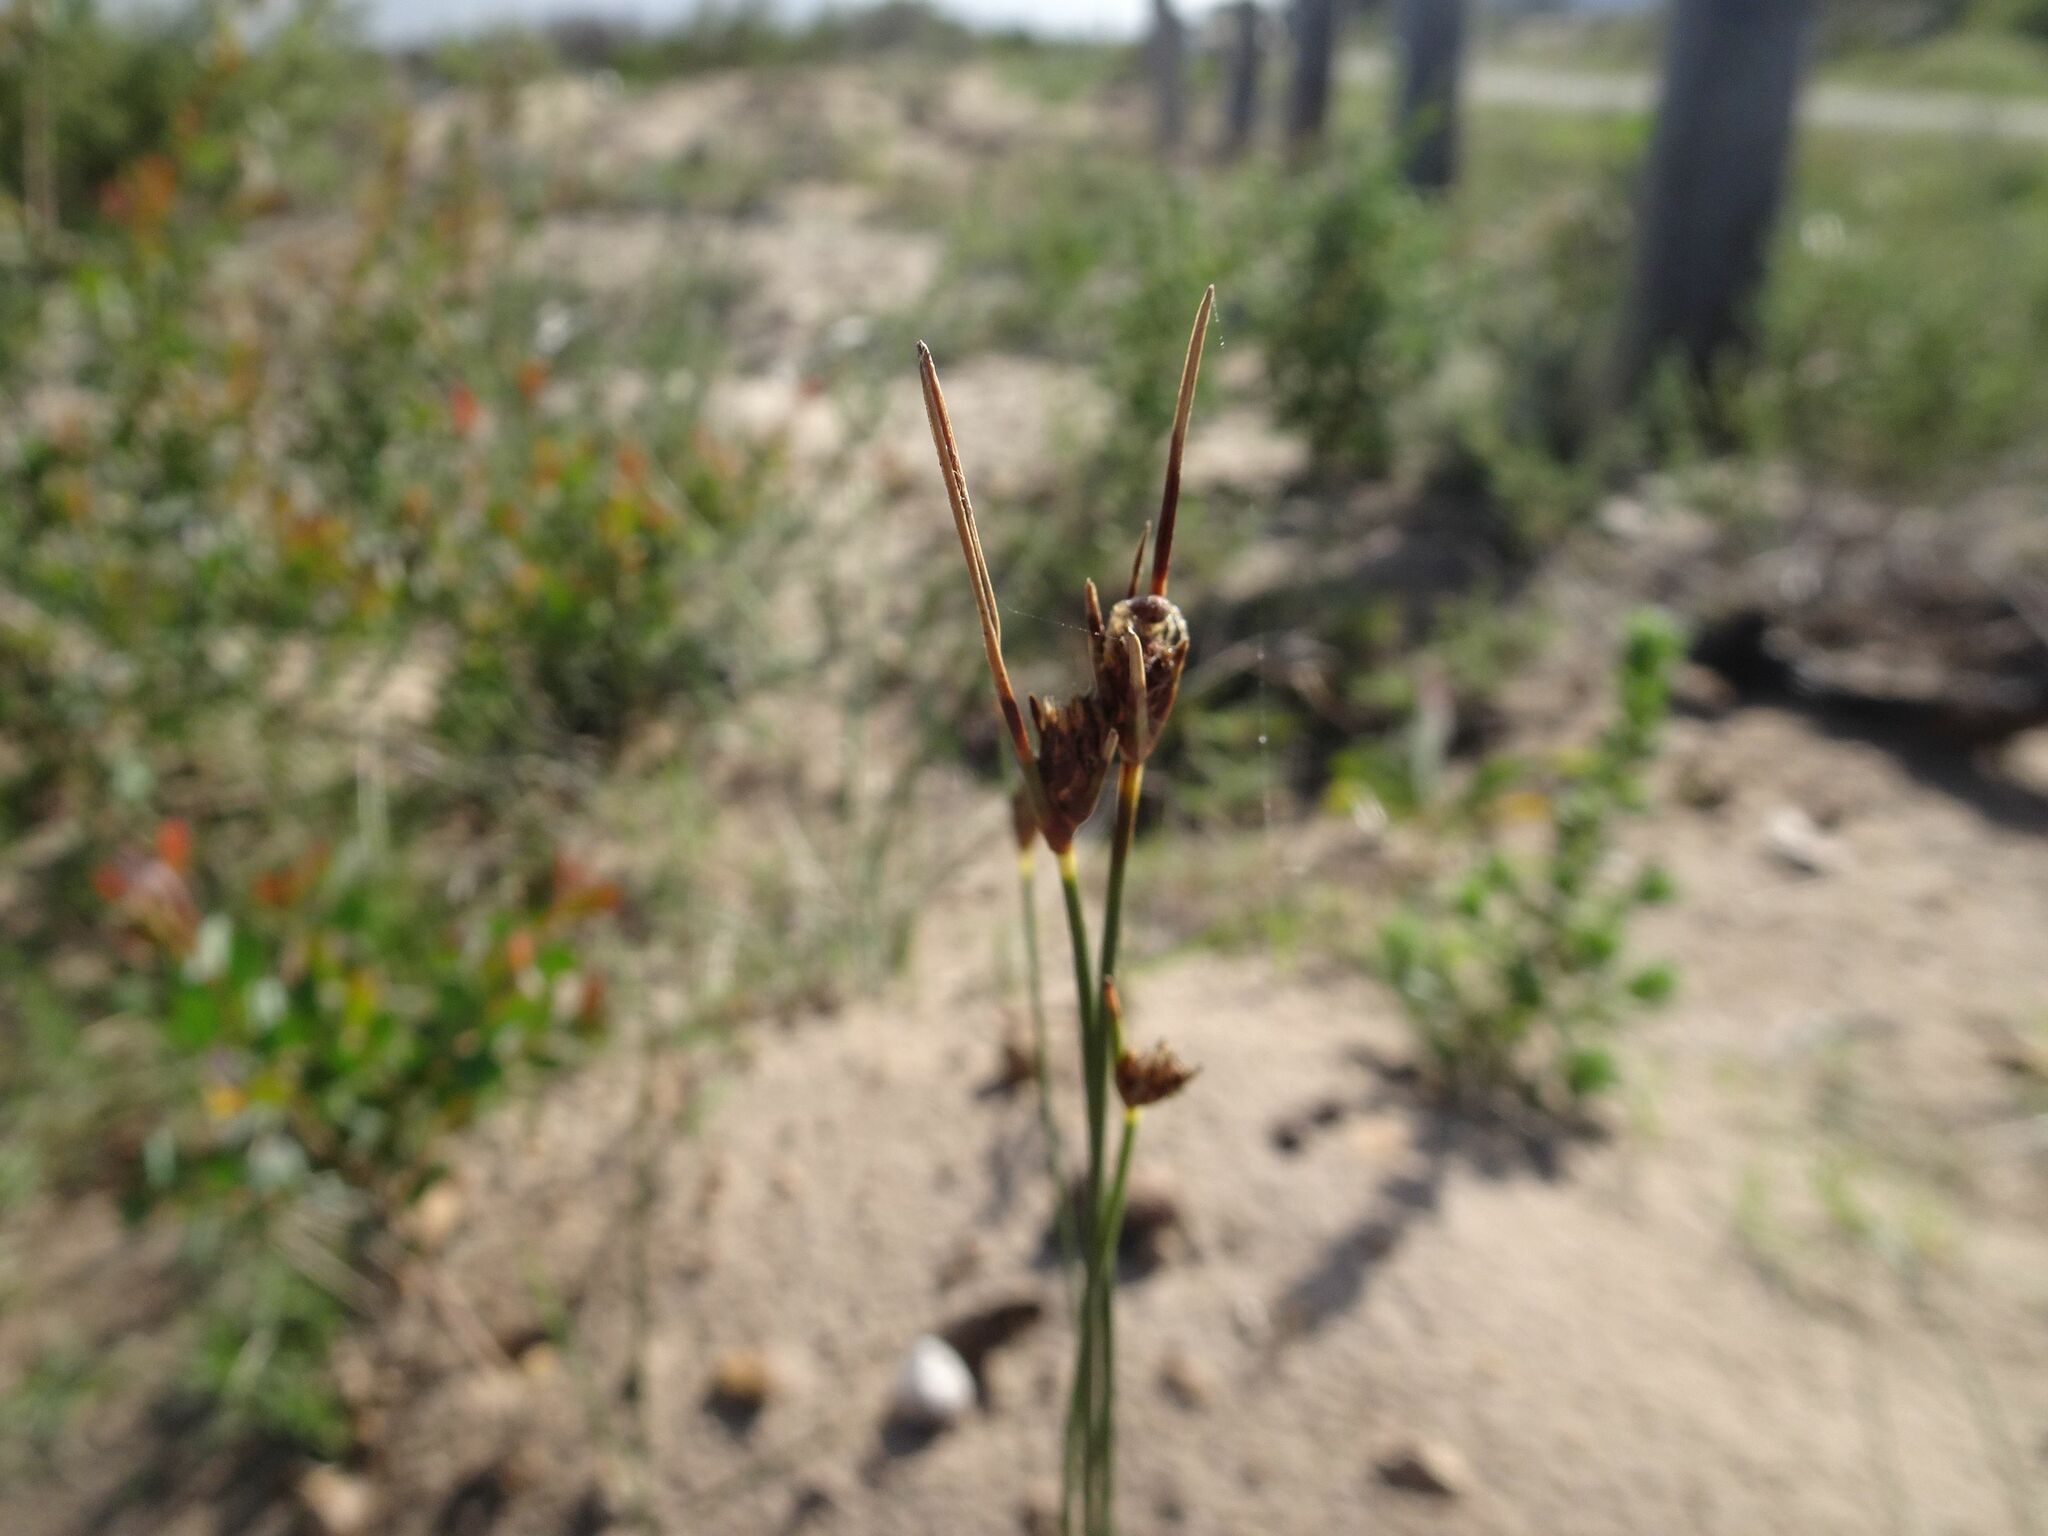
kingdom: Plantae
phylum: Tracheophyta
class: Liliopsida
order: Poales
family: Cyperaceae
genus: Ficinia
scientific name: Ficinia indica
